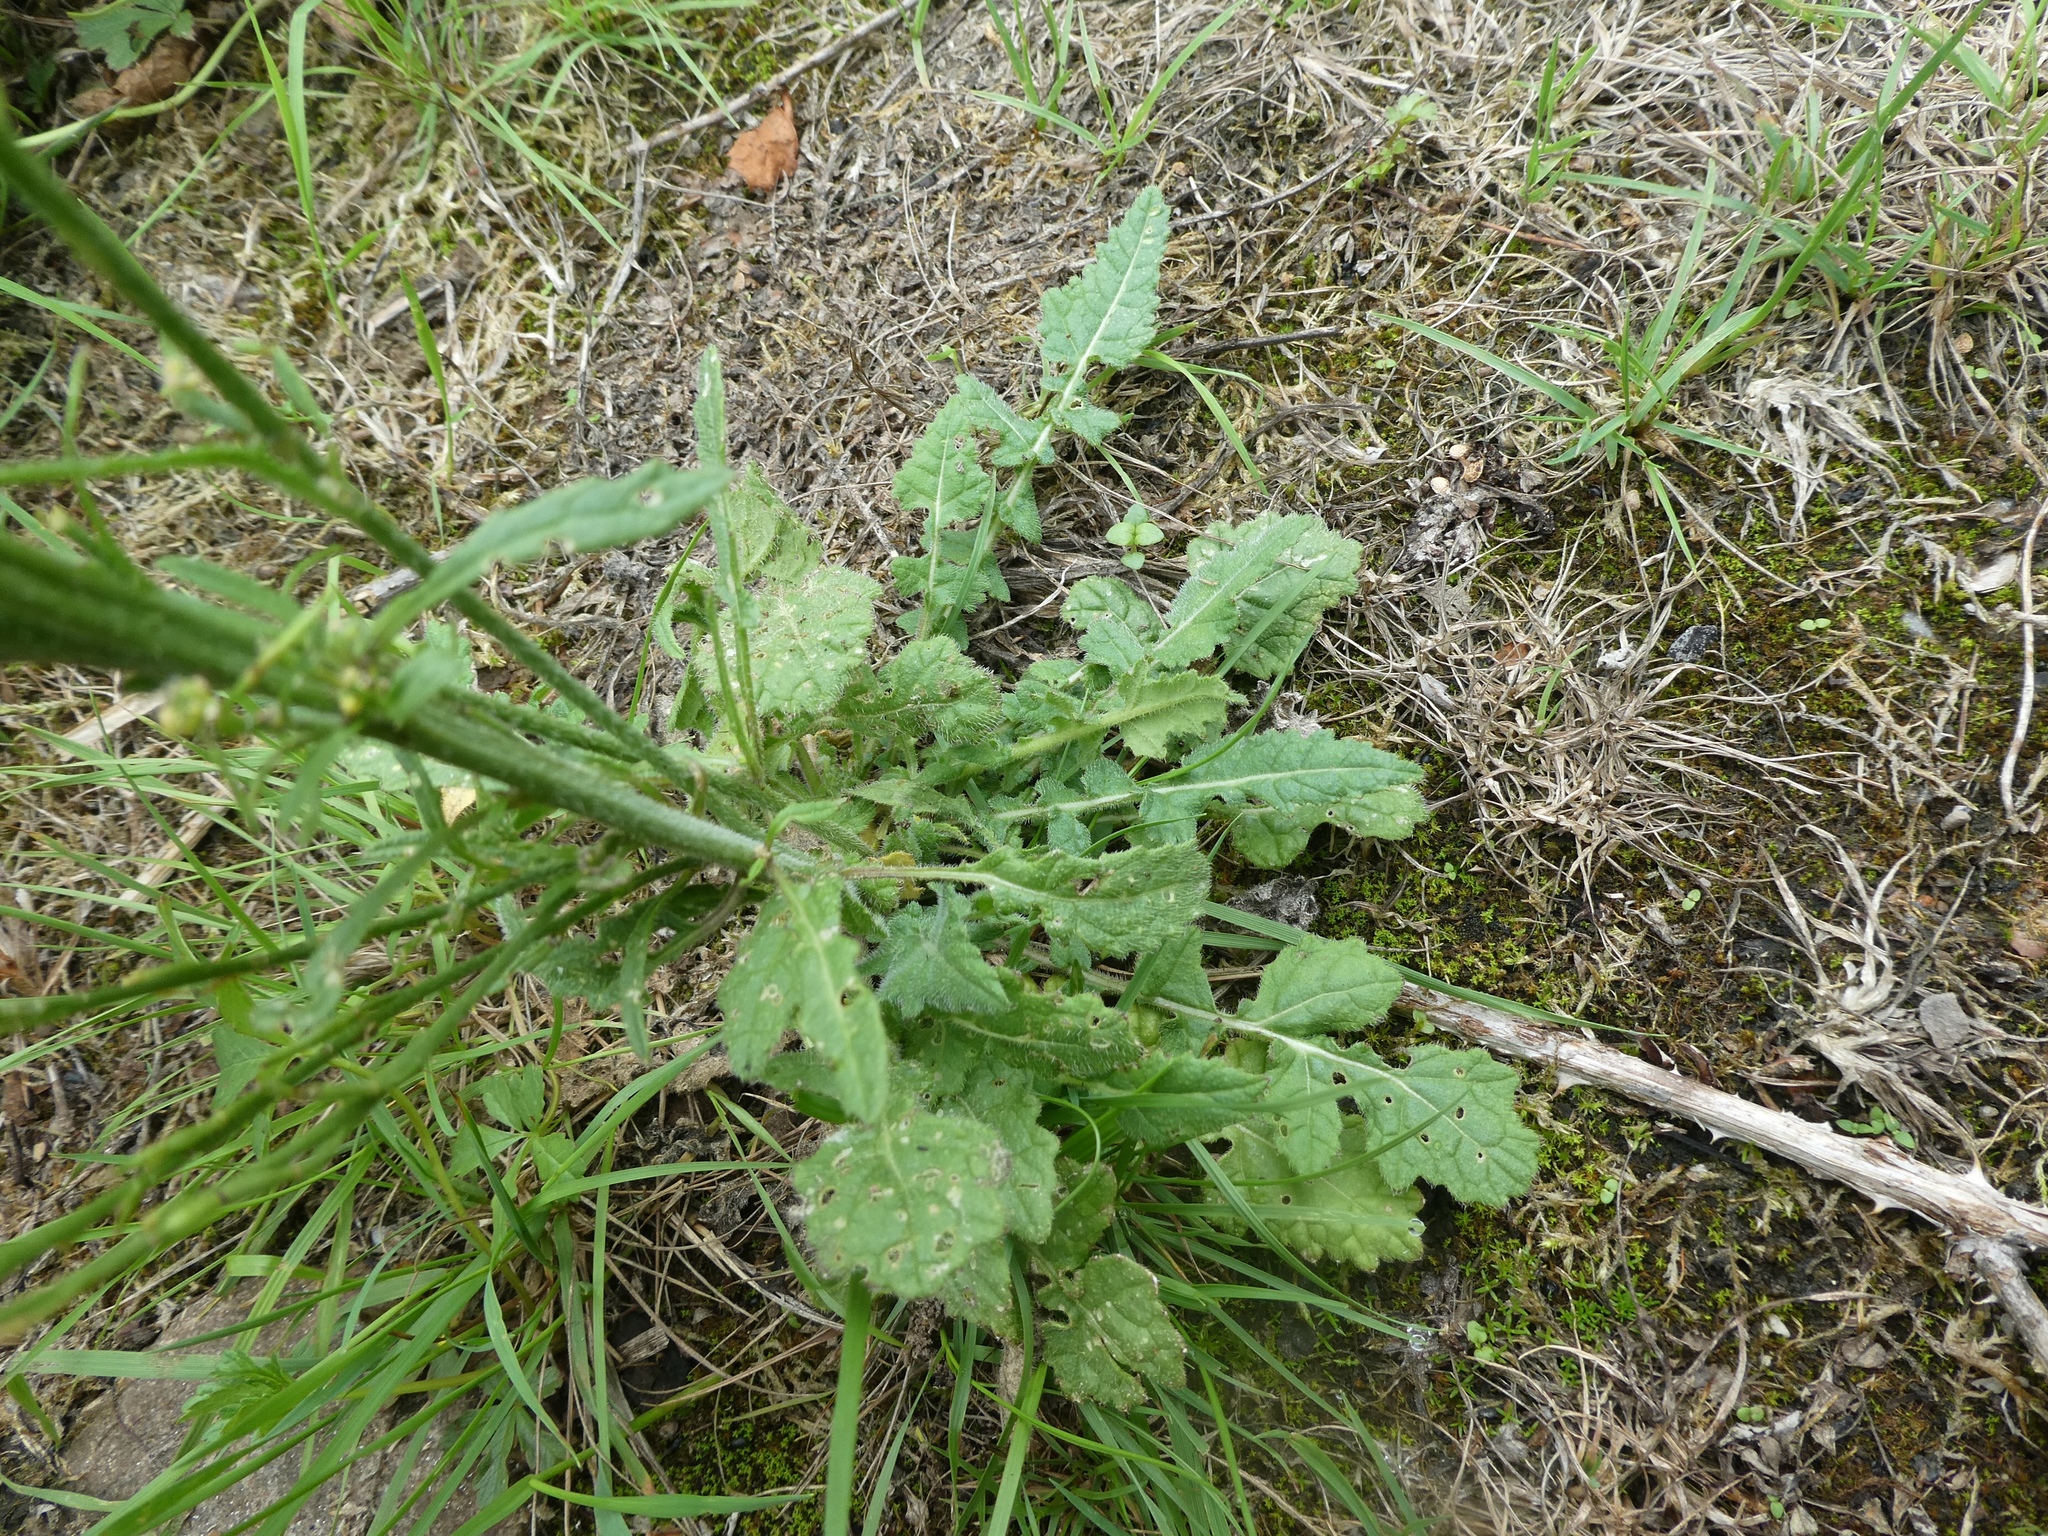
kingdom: Plantae
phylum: Tracheophyta
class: Magnoliopsida
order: Brassicales
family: Brassicaceae
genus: Hirschfeldia
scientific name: Hirschfeldia incana
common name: Hoary mustard
